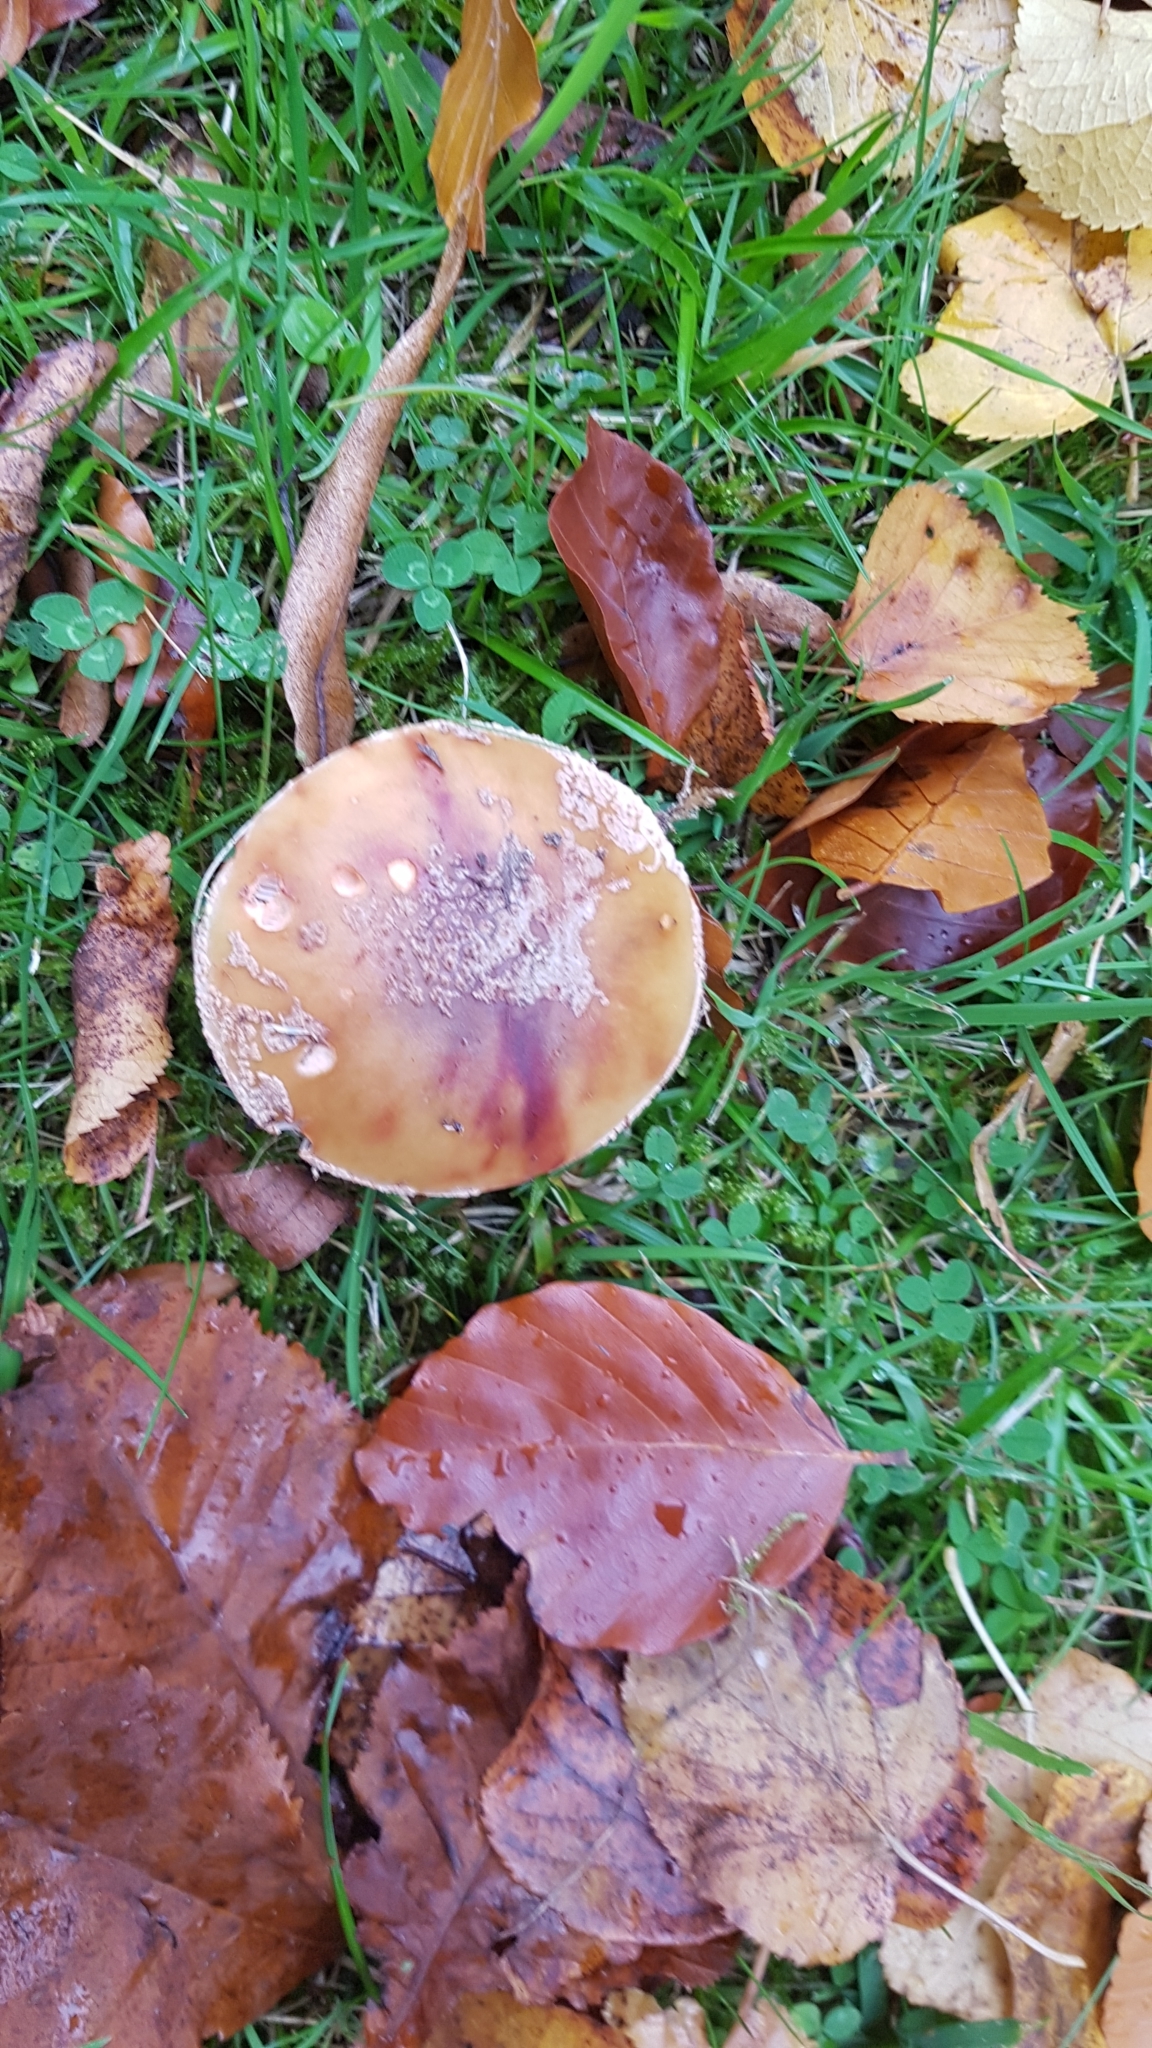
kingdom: Fungi
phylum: Basidiomycota
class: Agaricomycetes
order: Agaricales
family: Amanitaceae
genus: Amanita
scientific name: Amanita rubescens
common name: Blusher
